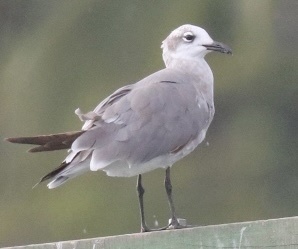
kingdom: Animalia
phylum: Chordata
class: Aves
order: Charadriiformes
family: Laridae
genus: Leucophaeus
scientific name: Leucophaeus atricilla
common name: Laughing gull
